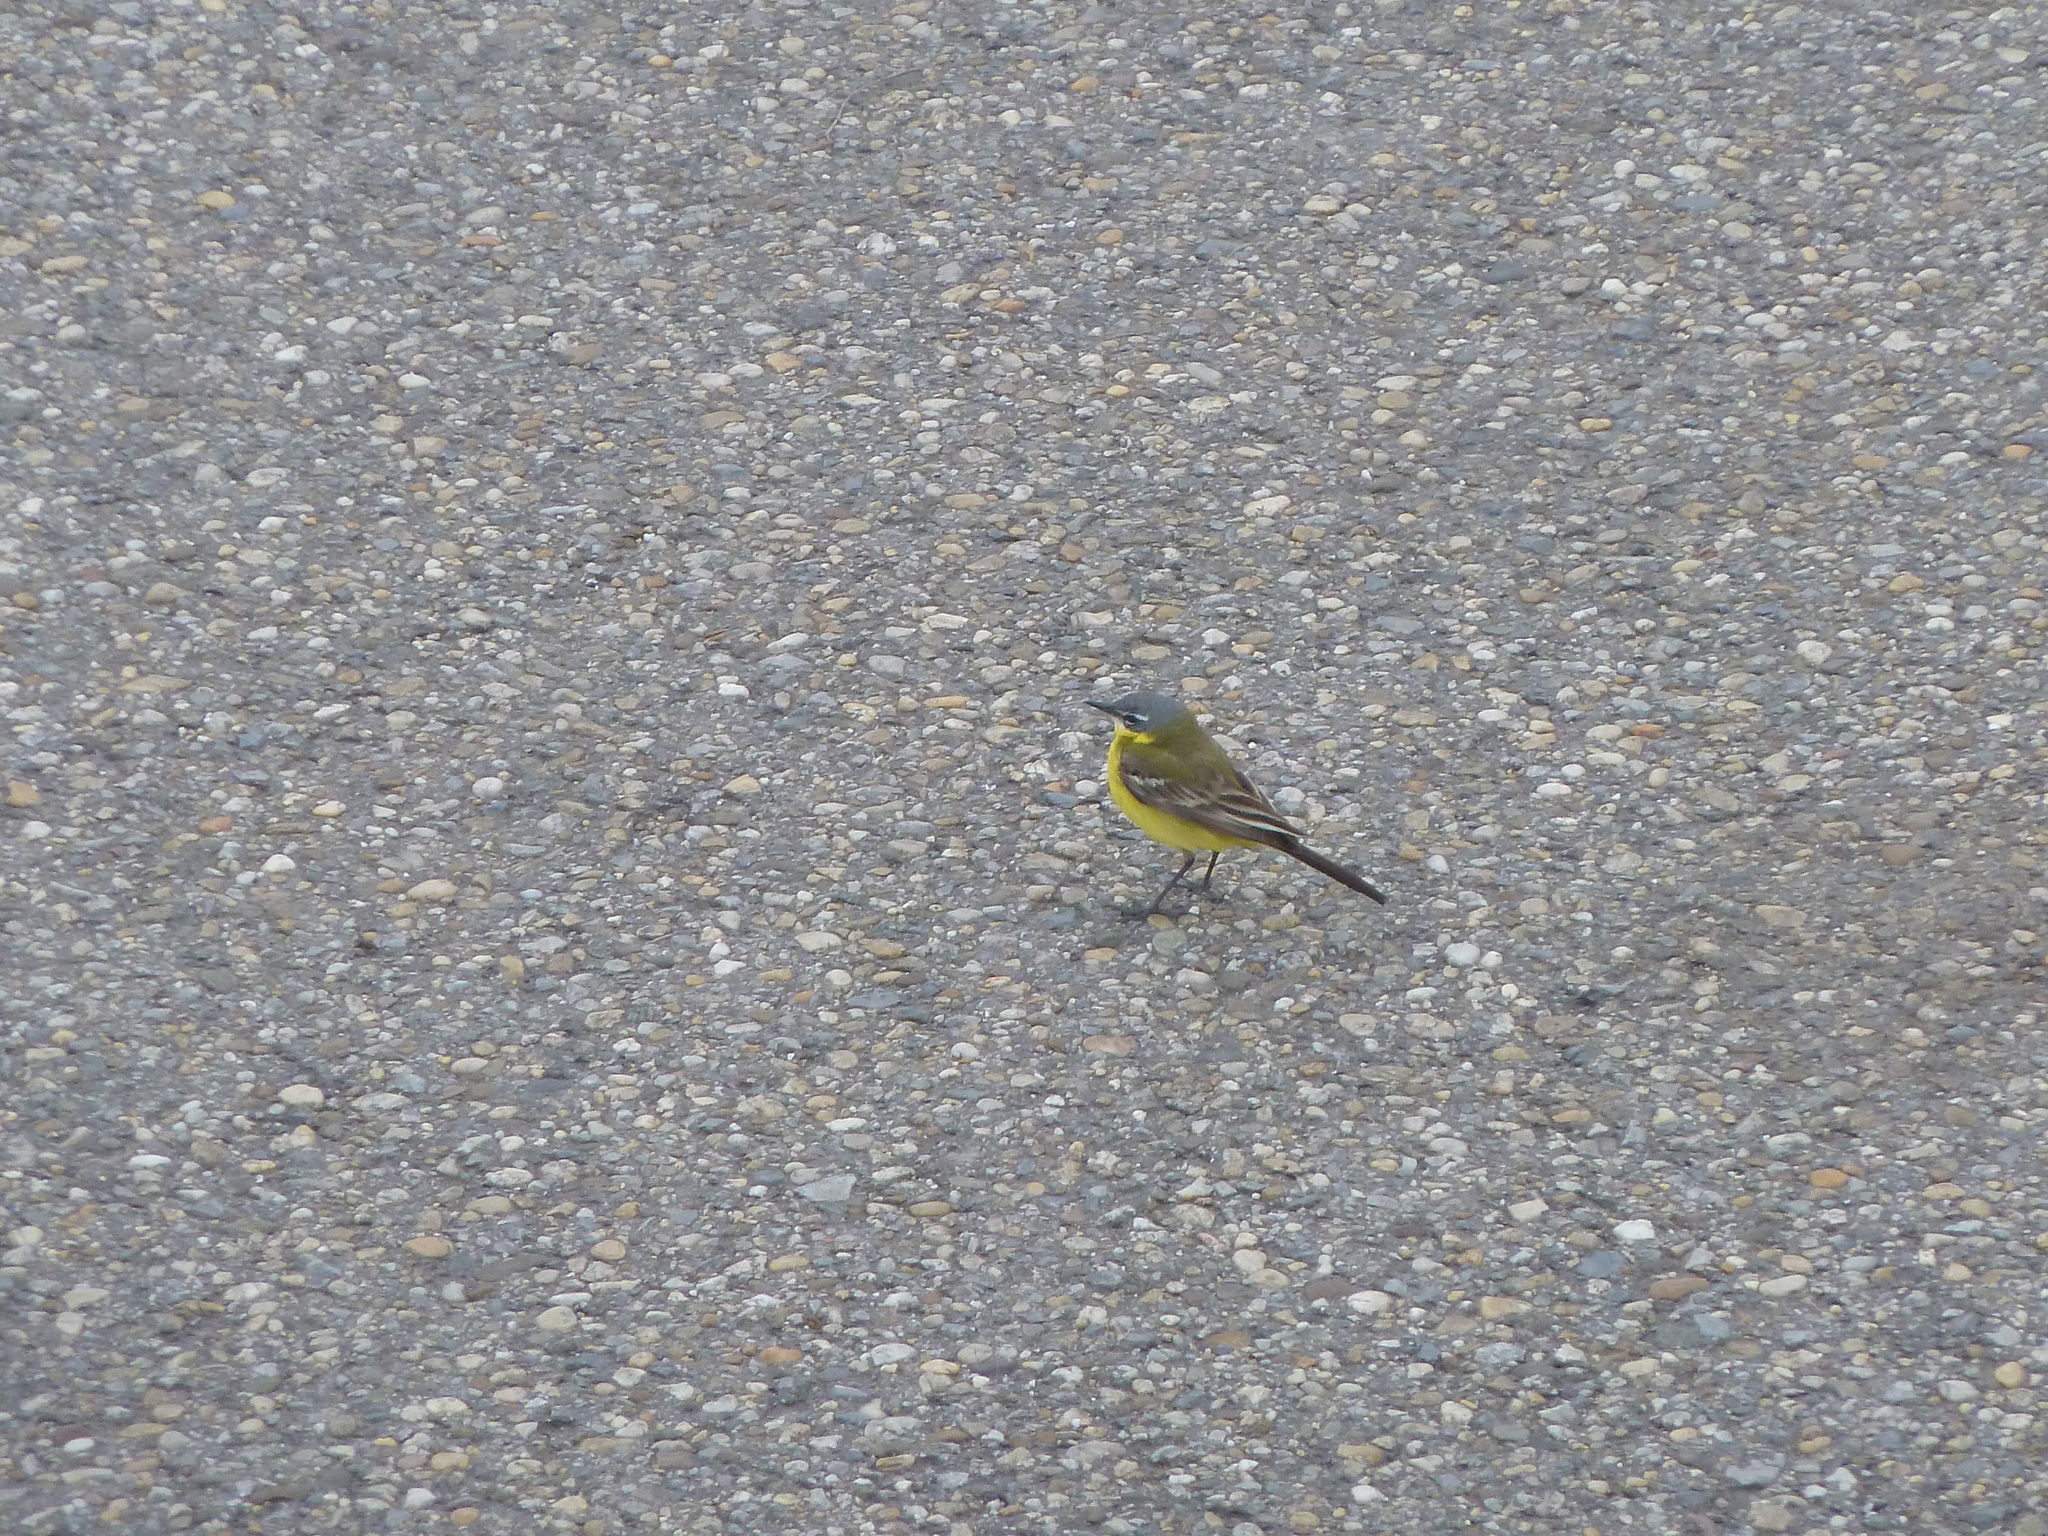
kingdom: Animalia
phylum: Chordata
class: Aves
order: Passeriformes
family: Motacillidae
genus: Motacilla
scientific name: Motacilla flava
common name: Western yellow wagtail
